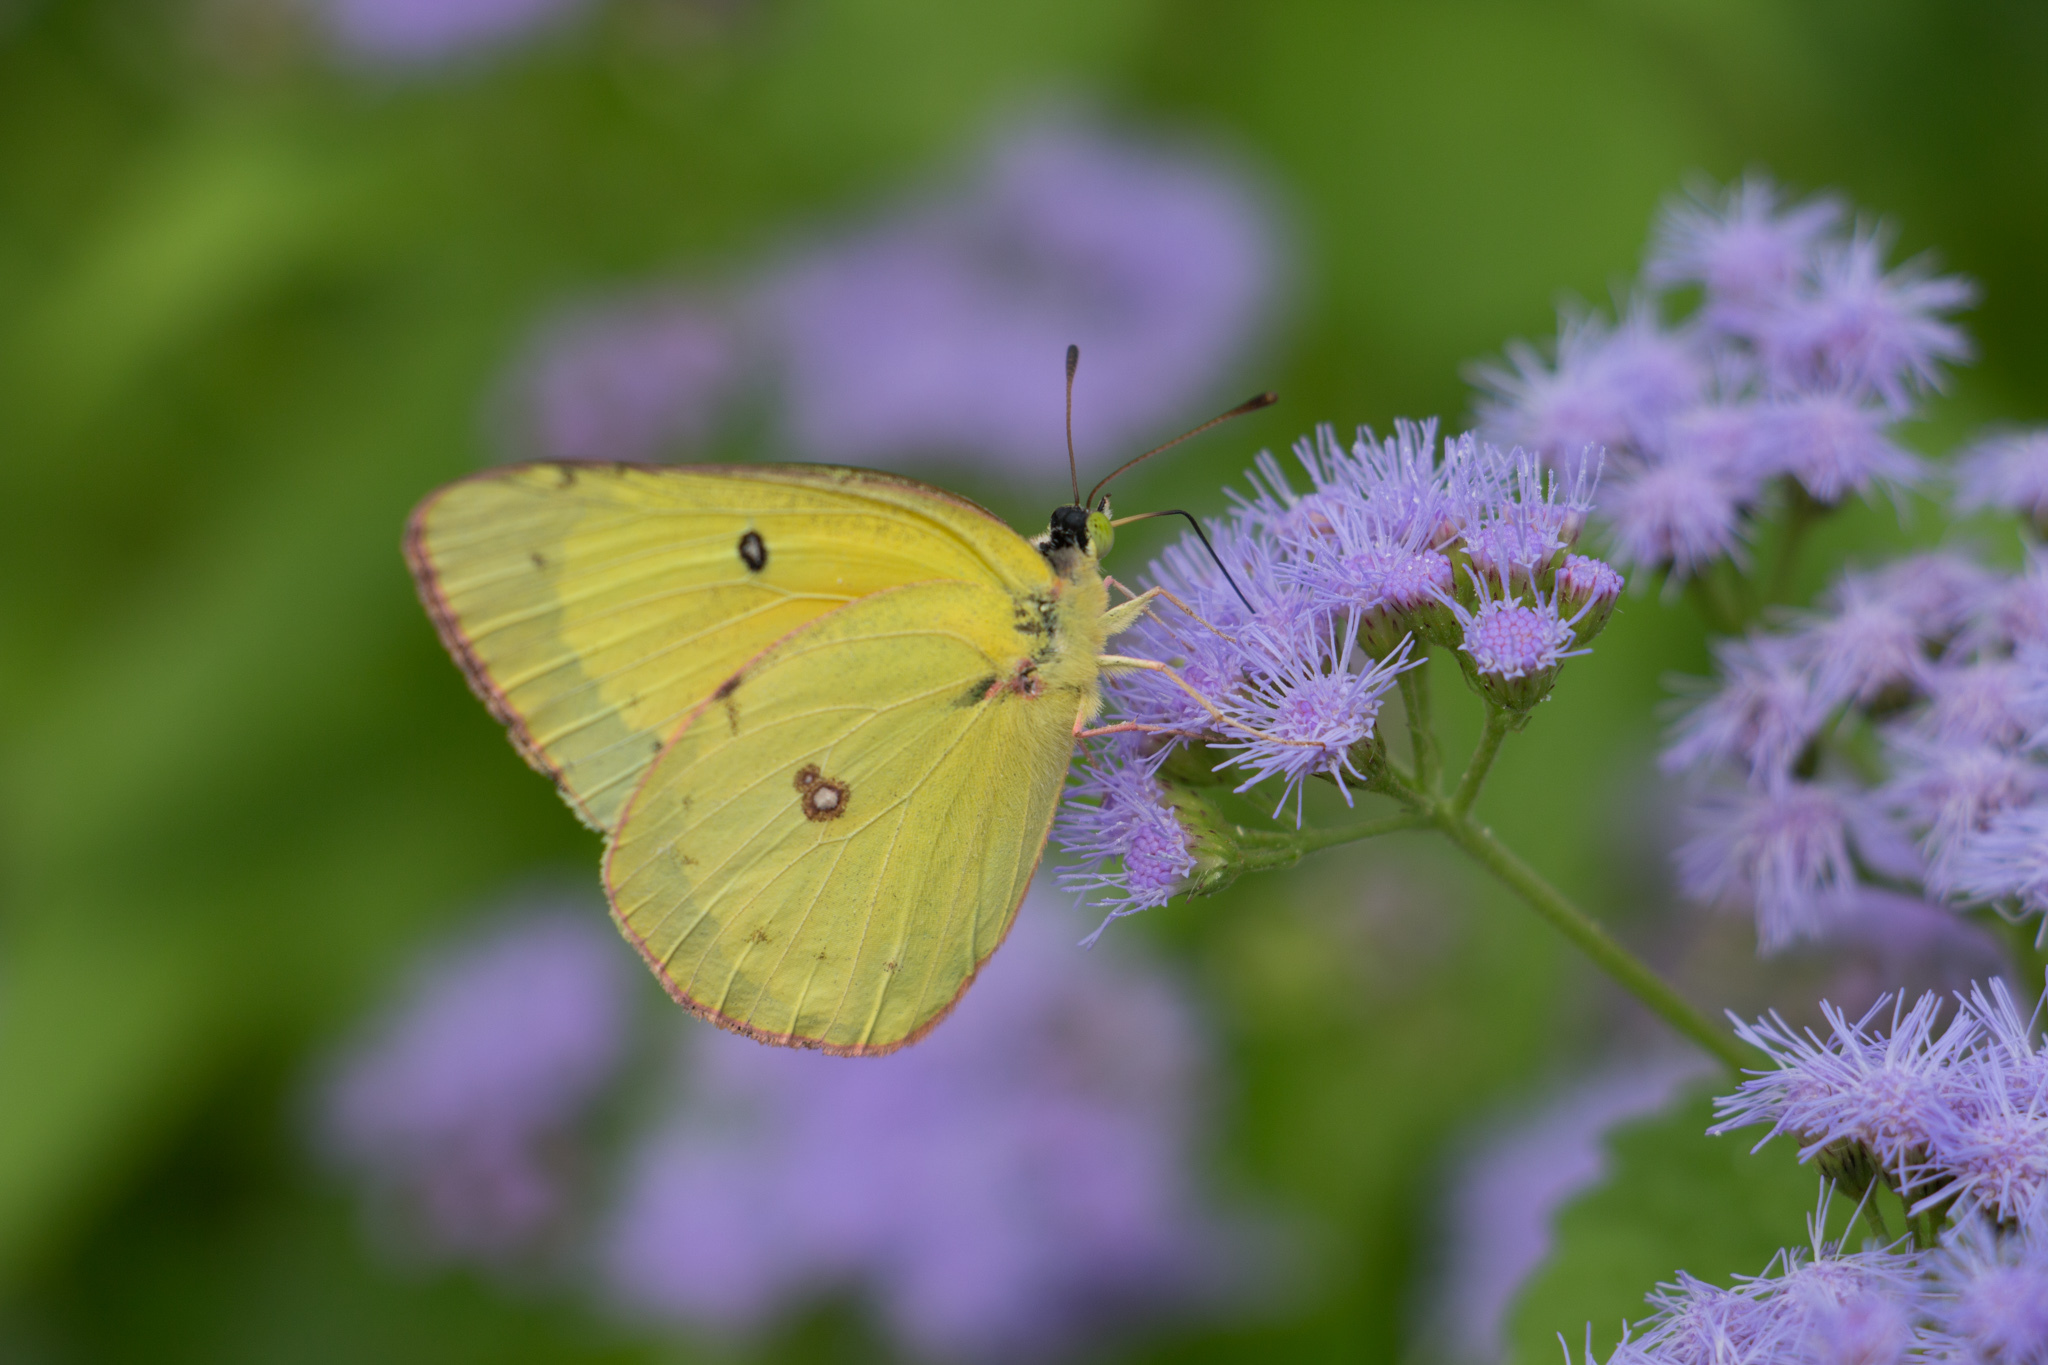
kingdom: Animalia
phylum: Arthropoda
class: Insecta
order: Lepidoptera
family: Pieridae
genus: Colias
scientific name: Colias eurytheme
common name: Alfalfa butterfly
